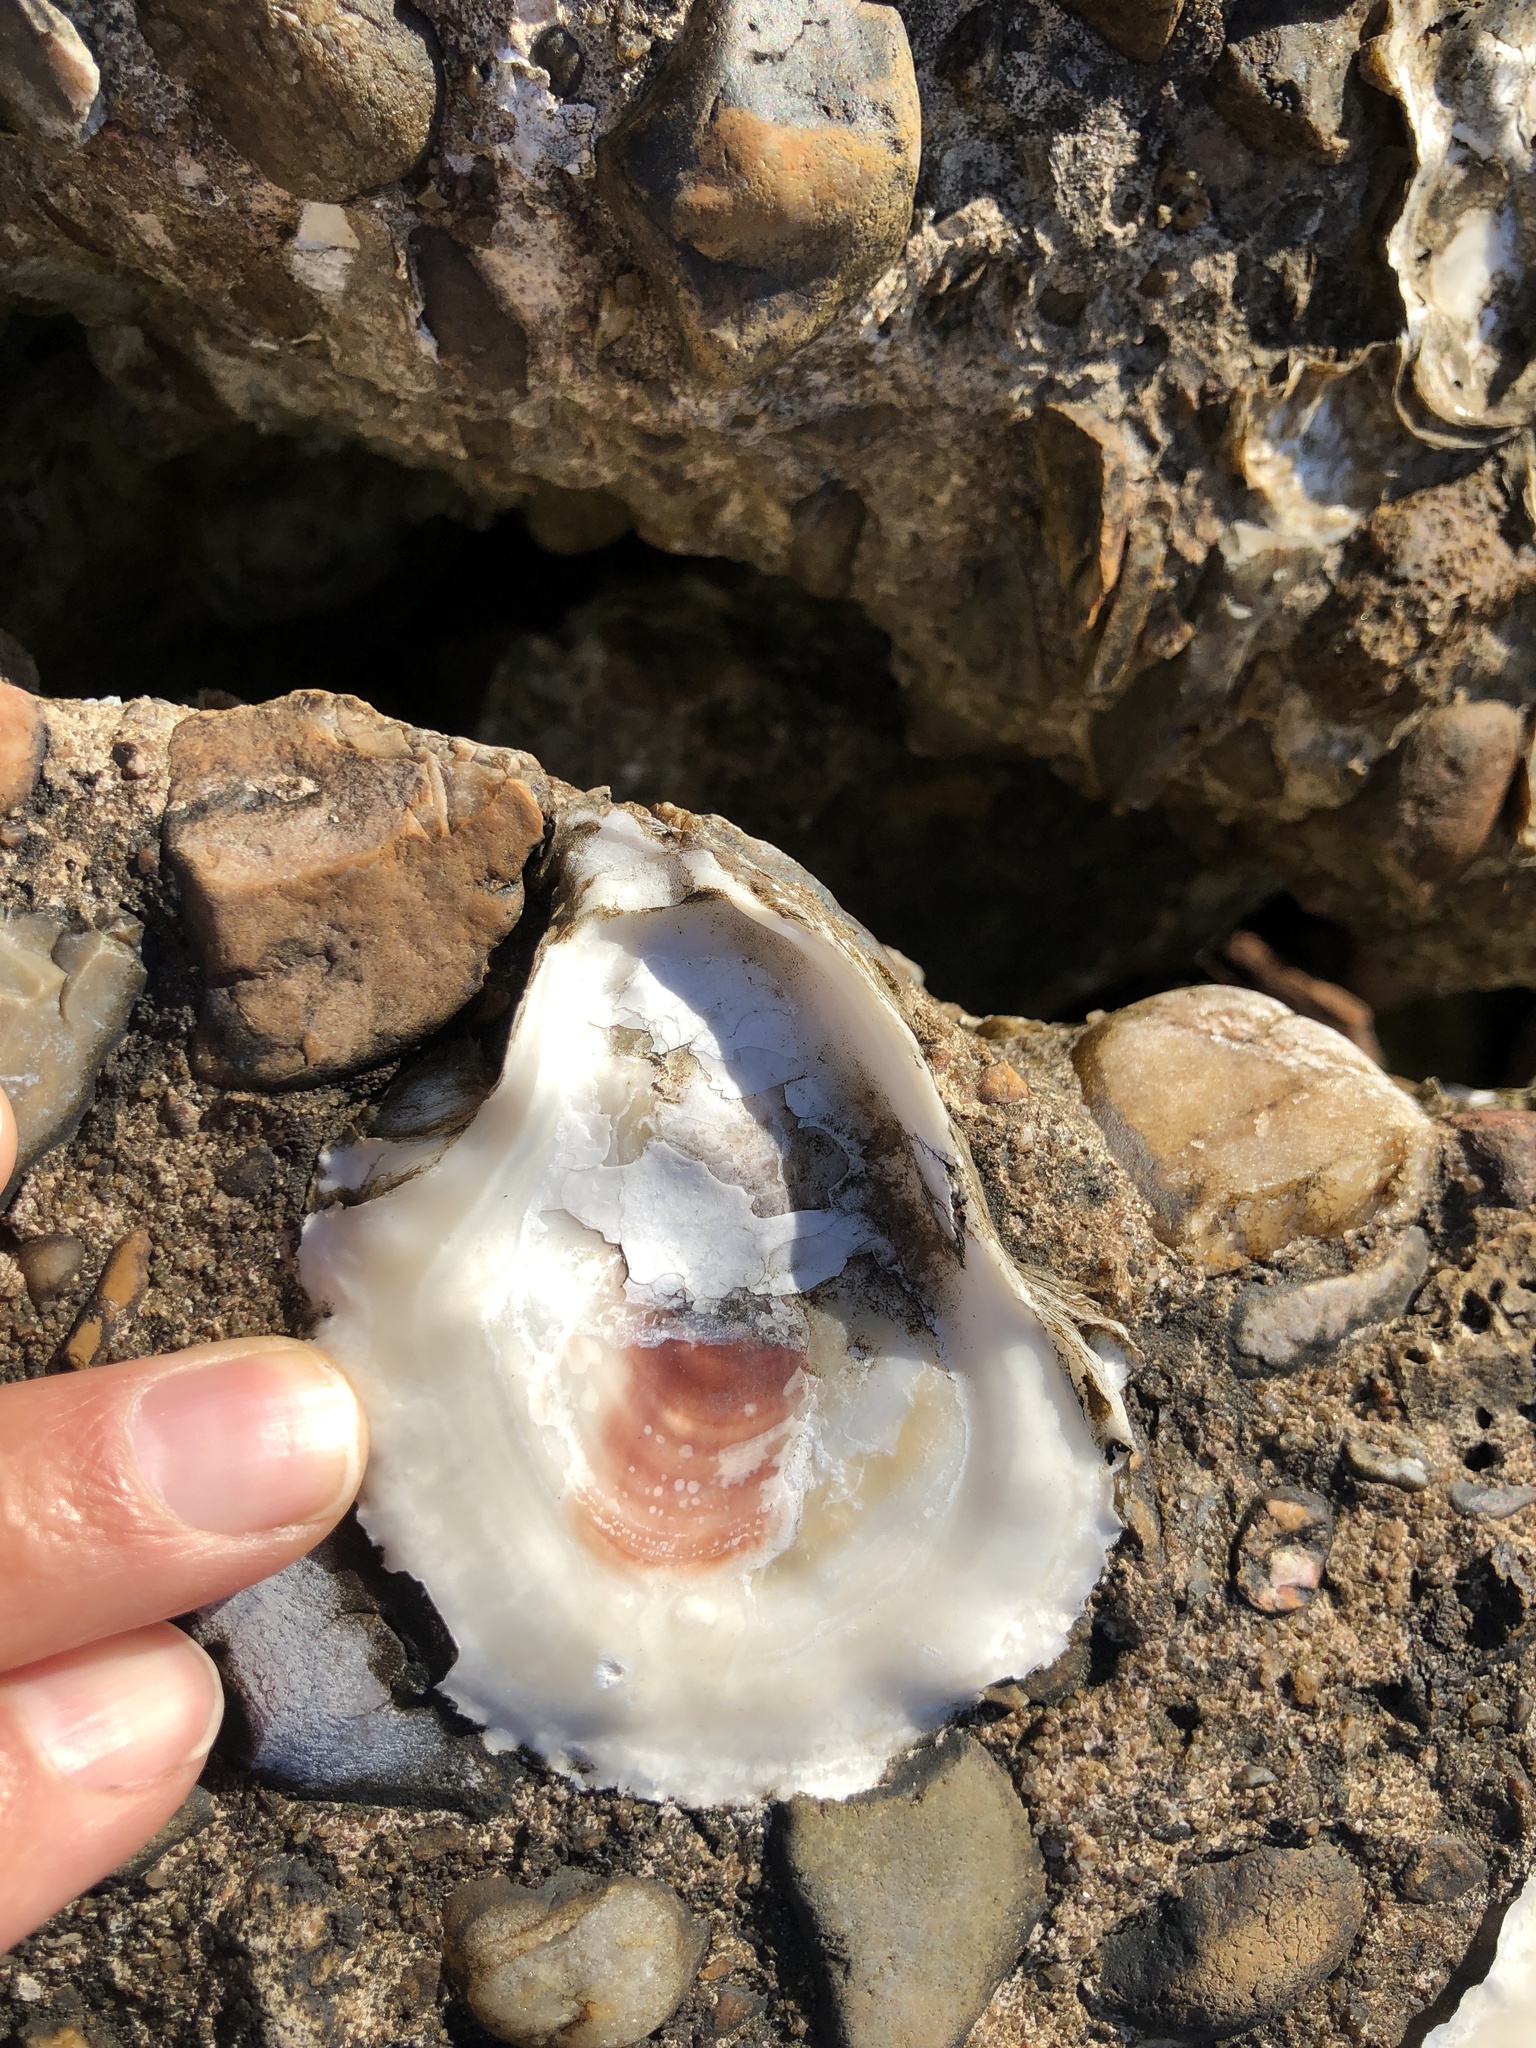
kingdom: Animalia
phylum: Mollusca
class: Bivalvia
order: Ostreida
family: Ostreidae
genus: Crassostrea
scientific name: Crassostrea virginica
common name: American oyster
